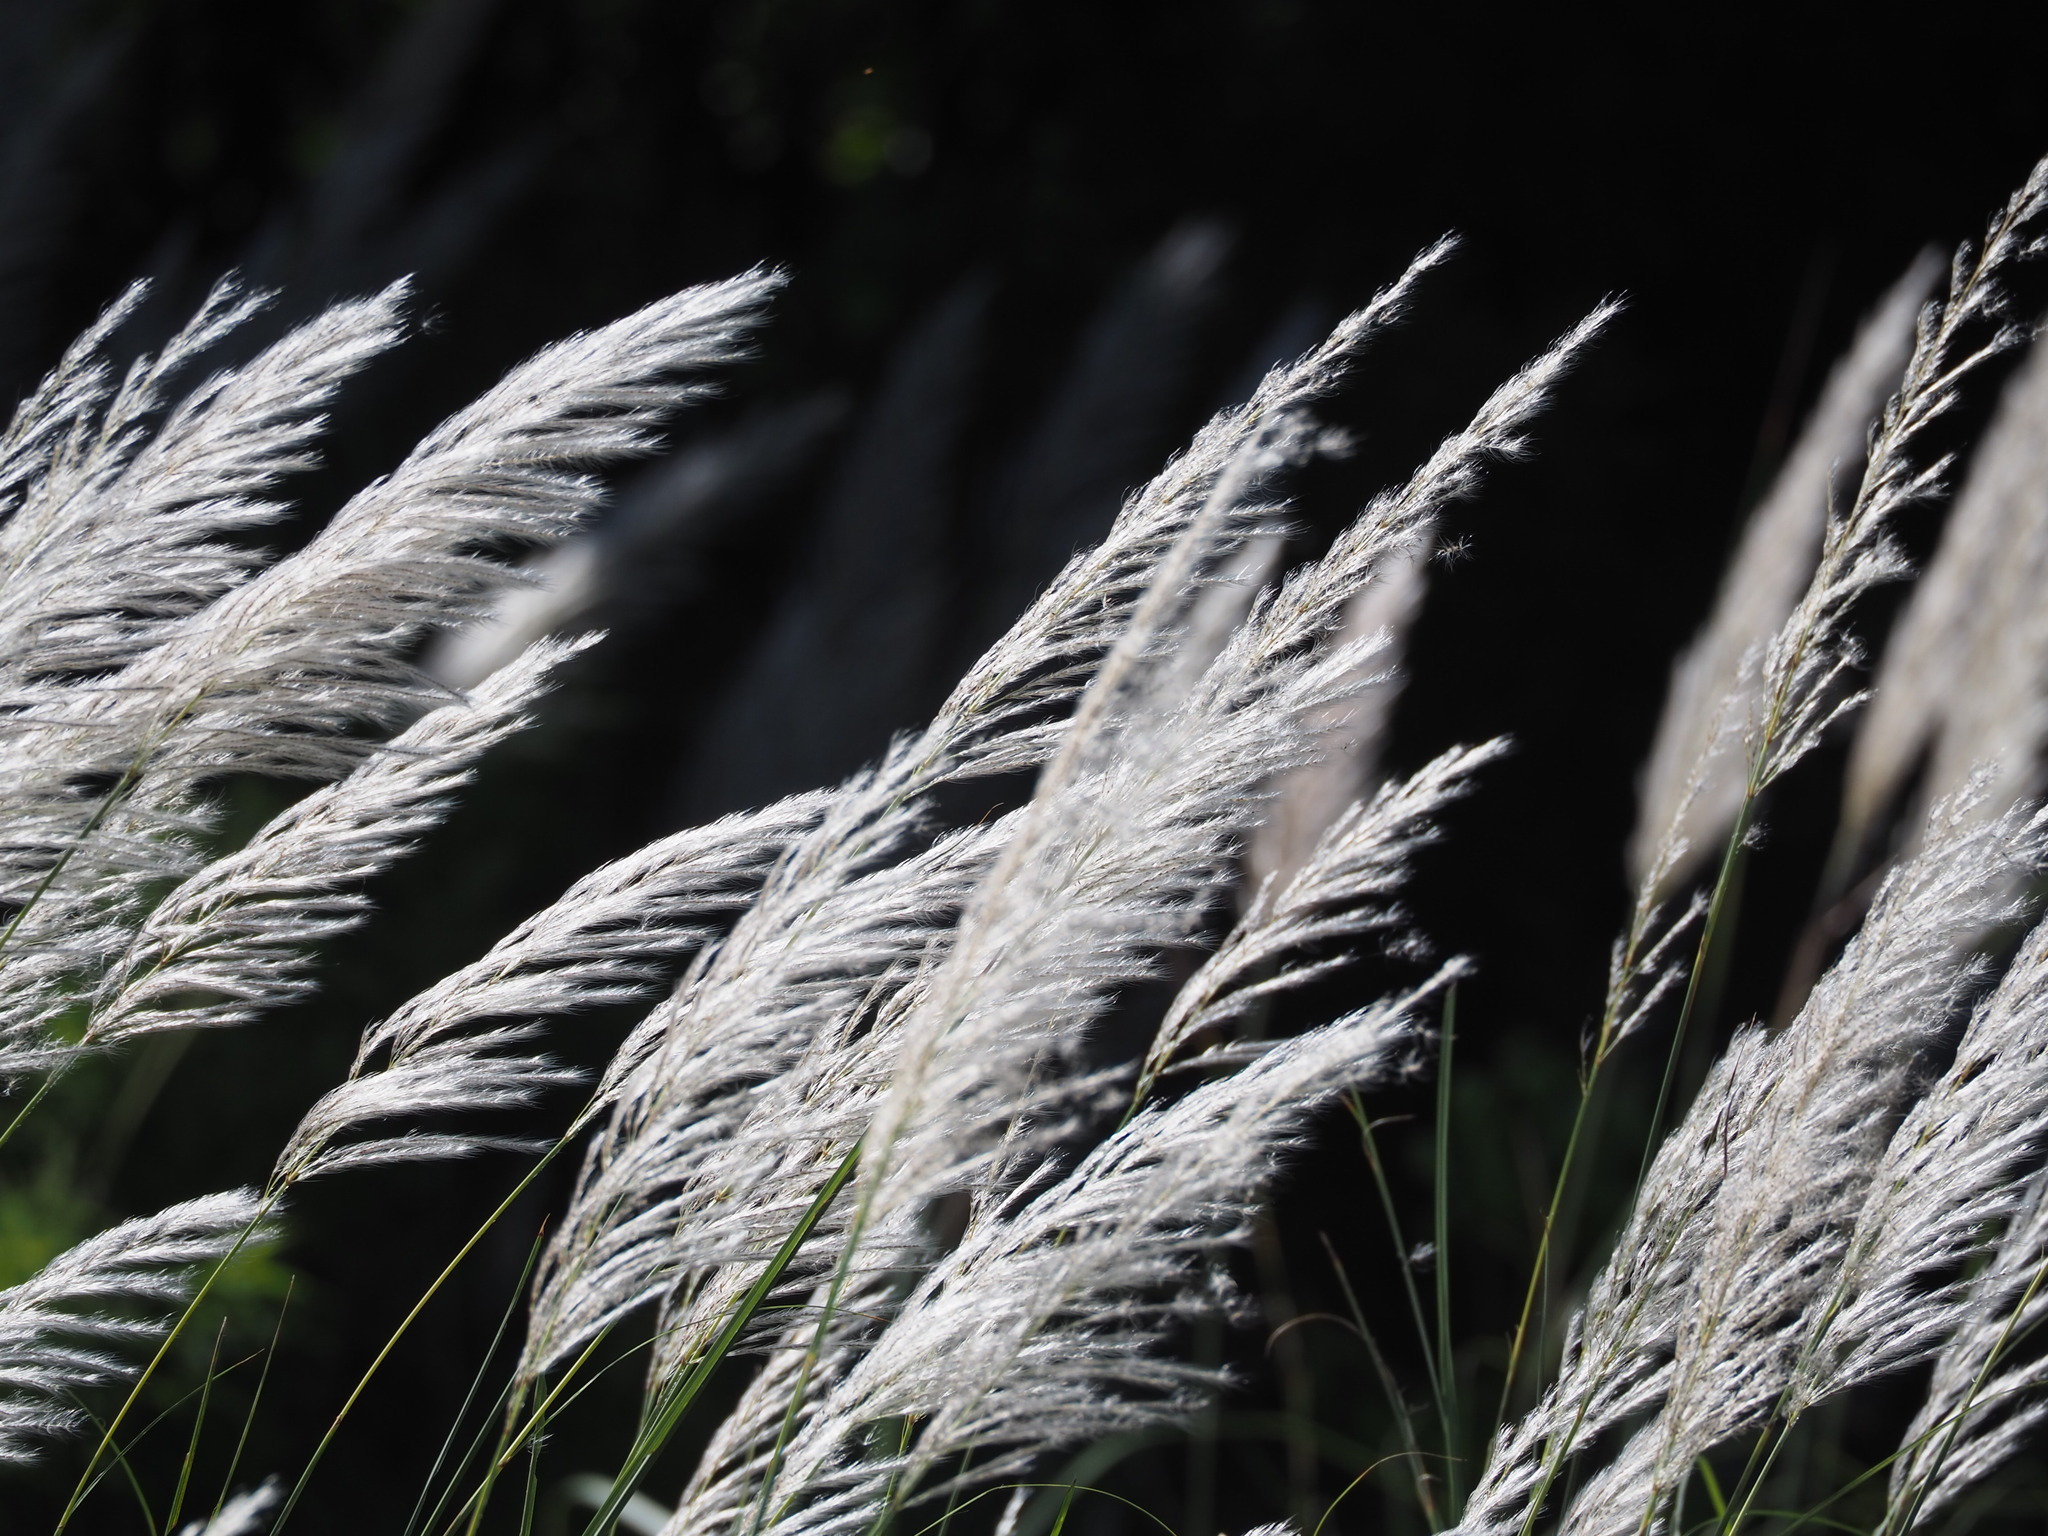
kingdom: Plantae
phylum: Tracheophyta
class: Liliopsida
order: Poales
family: Poaceae
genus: Saccharum
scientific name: Saccharum spontaneum
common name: Wild sugarcane
